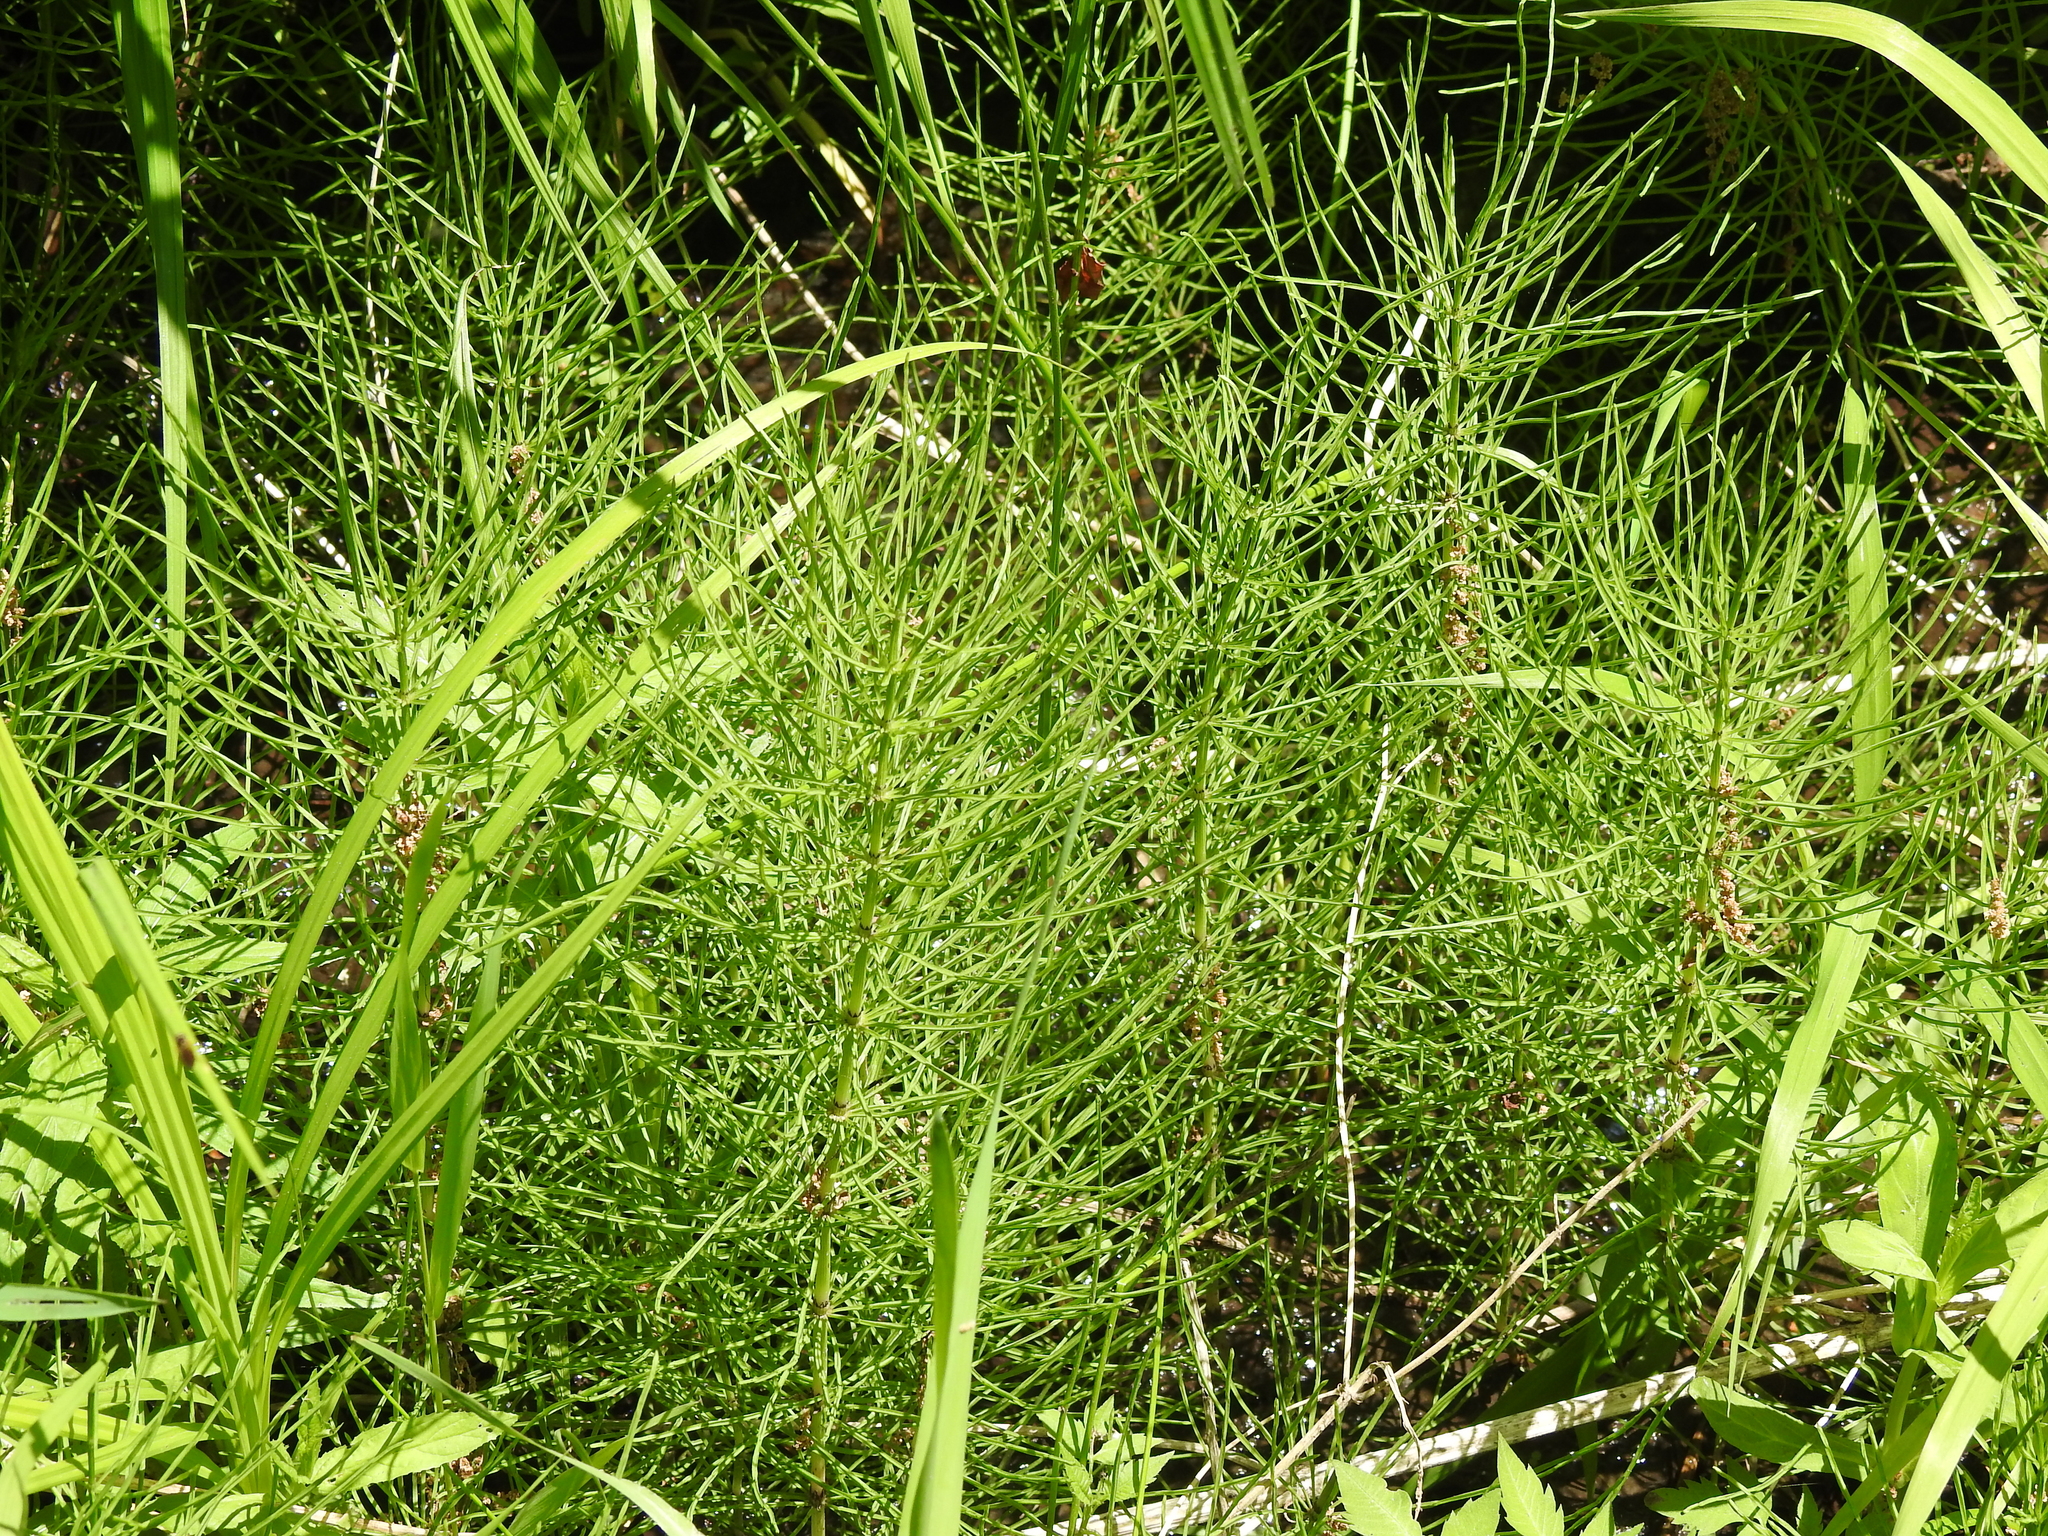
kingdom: Plantae
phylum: Tracheophyta
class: Polypodiopsida
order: Equisetales
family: Equisetaceae
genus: Equisetum
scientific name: Equisetum arvense
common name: Field horsetail
